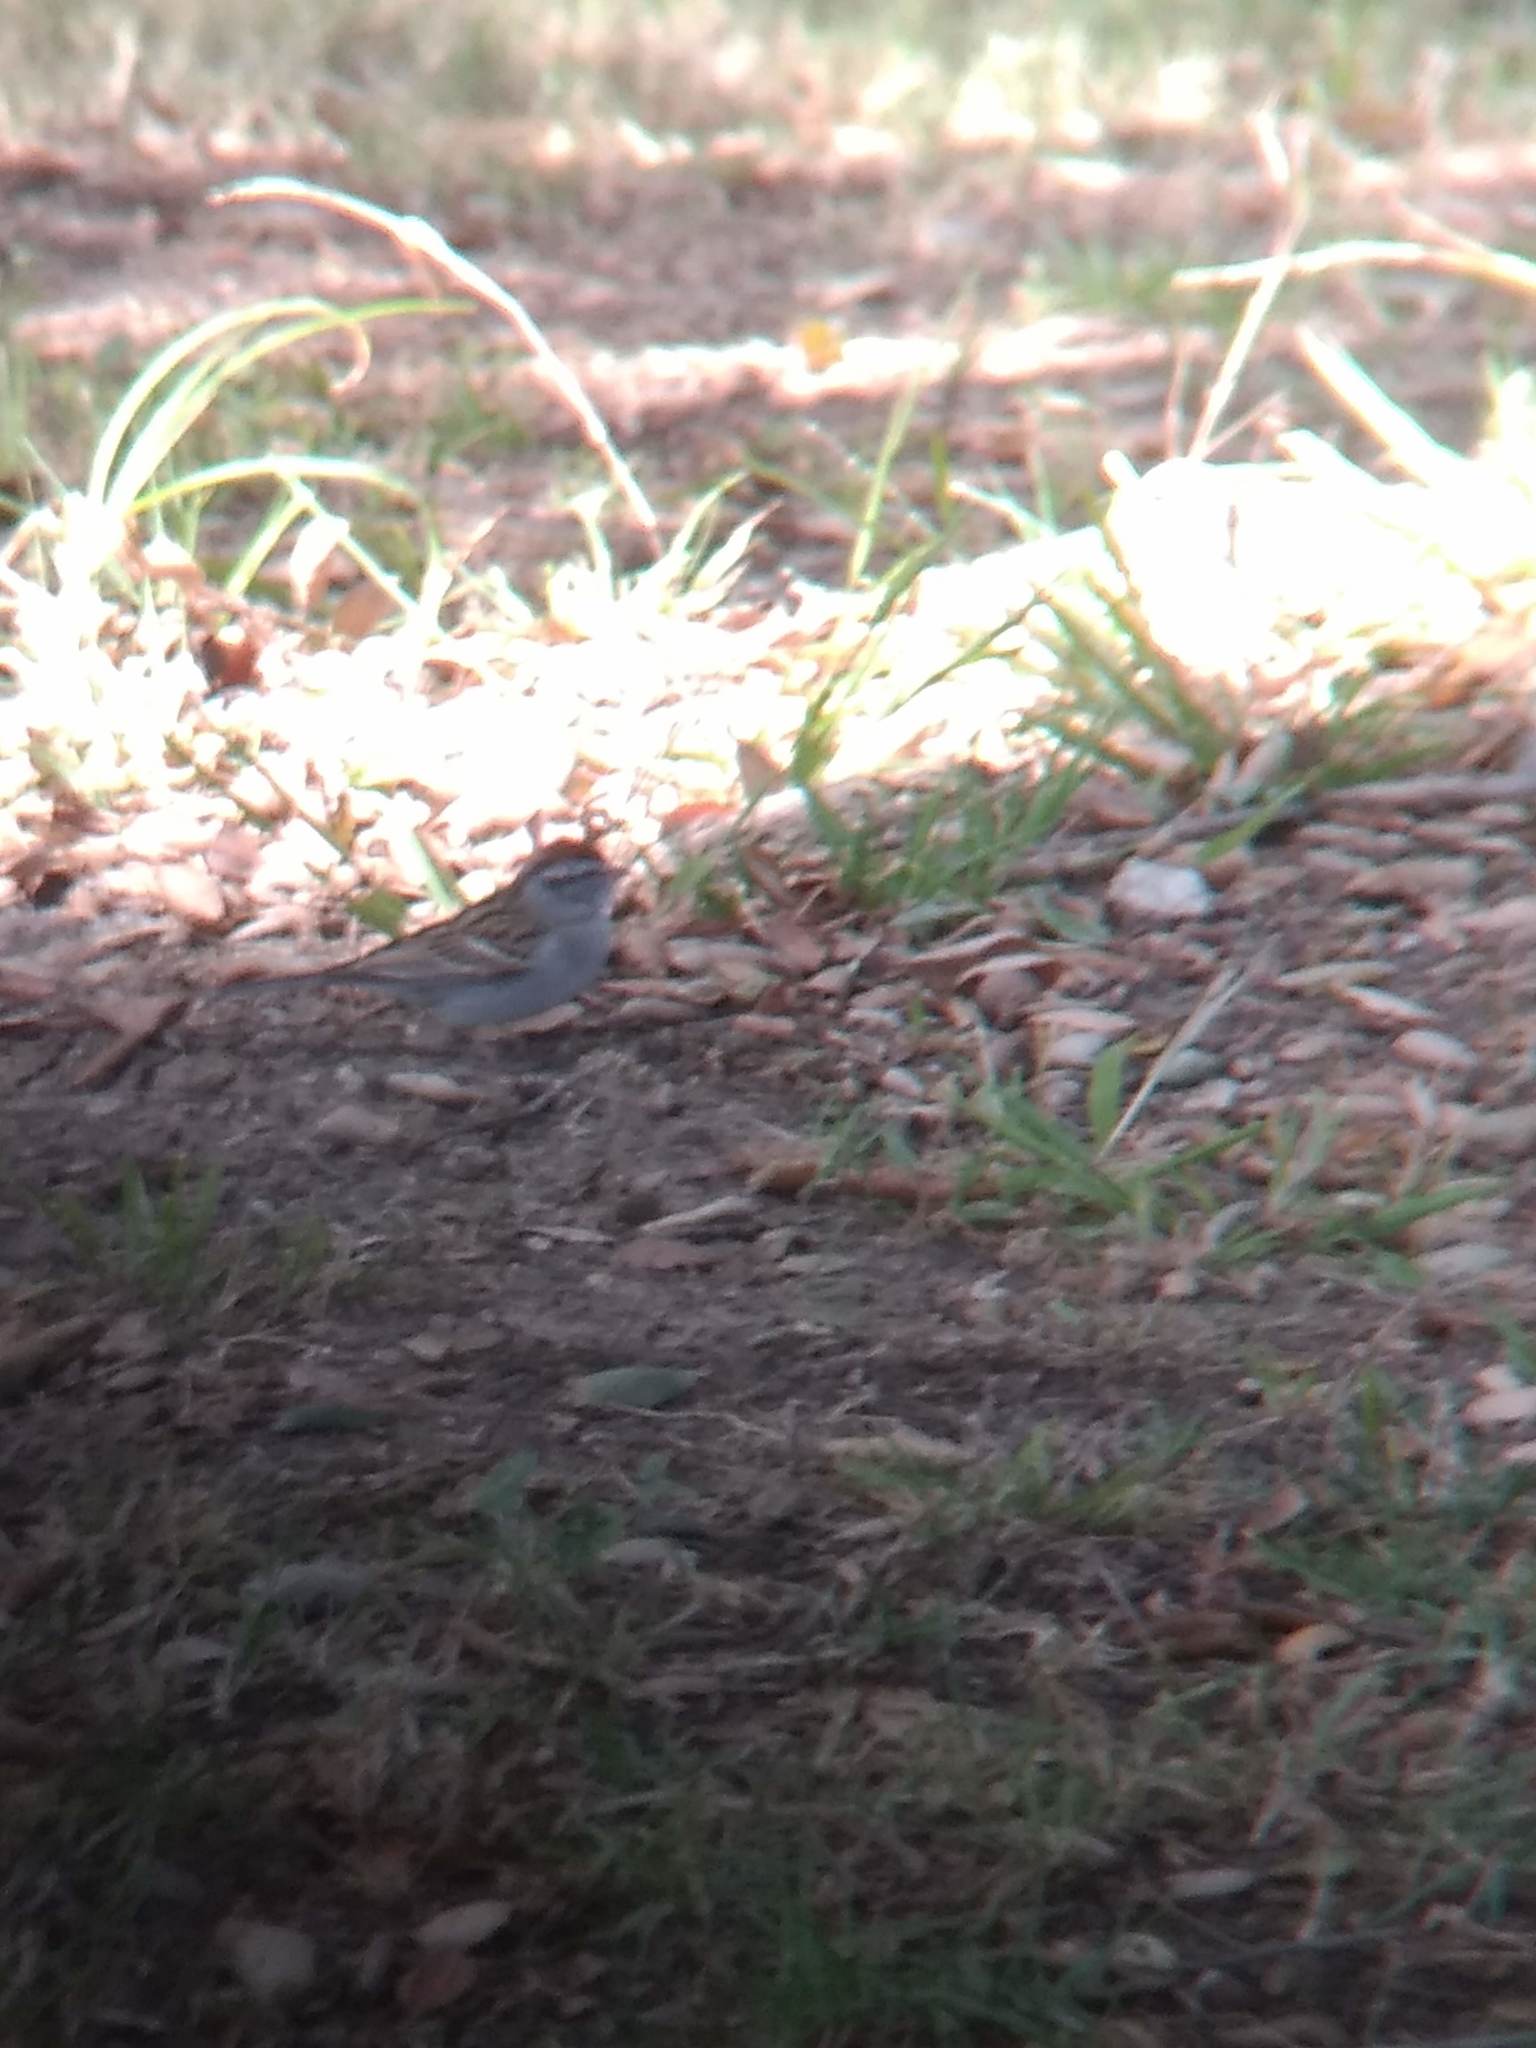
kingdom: Animalia
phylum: Chordata
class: Aves
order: Passeriformes
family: Passerellidae
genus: Spizella
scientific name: Spizella passerina
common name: Chipping sparrow
